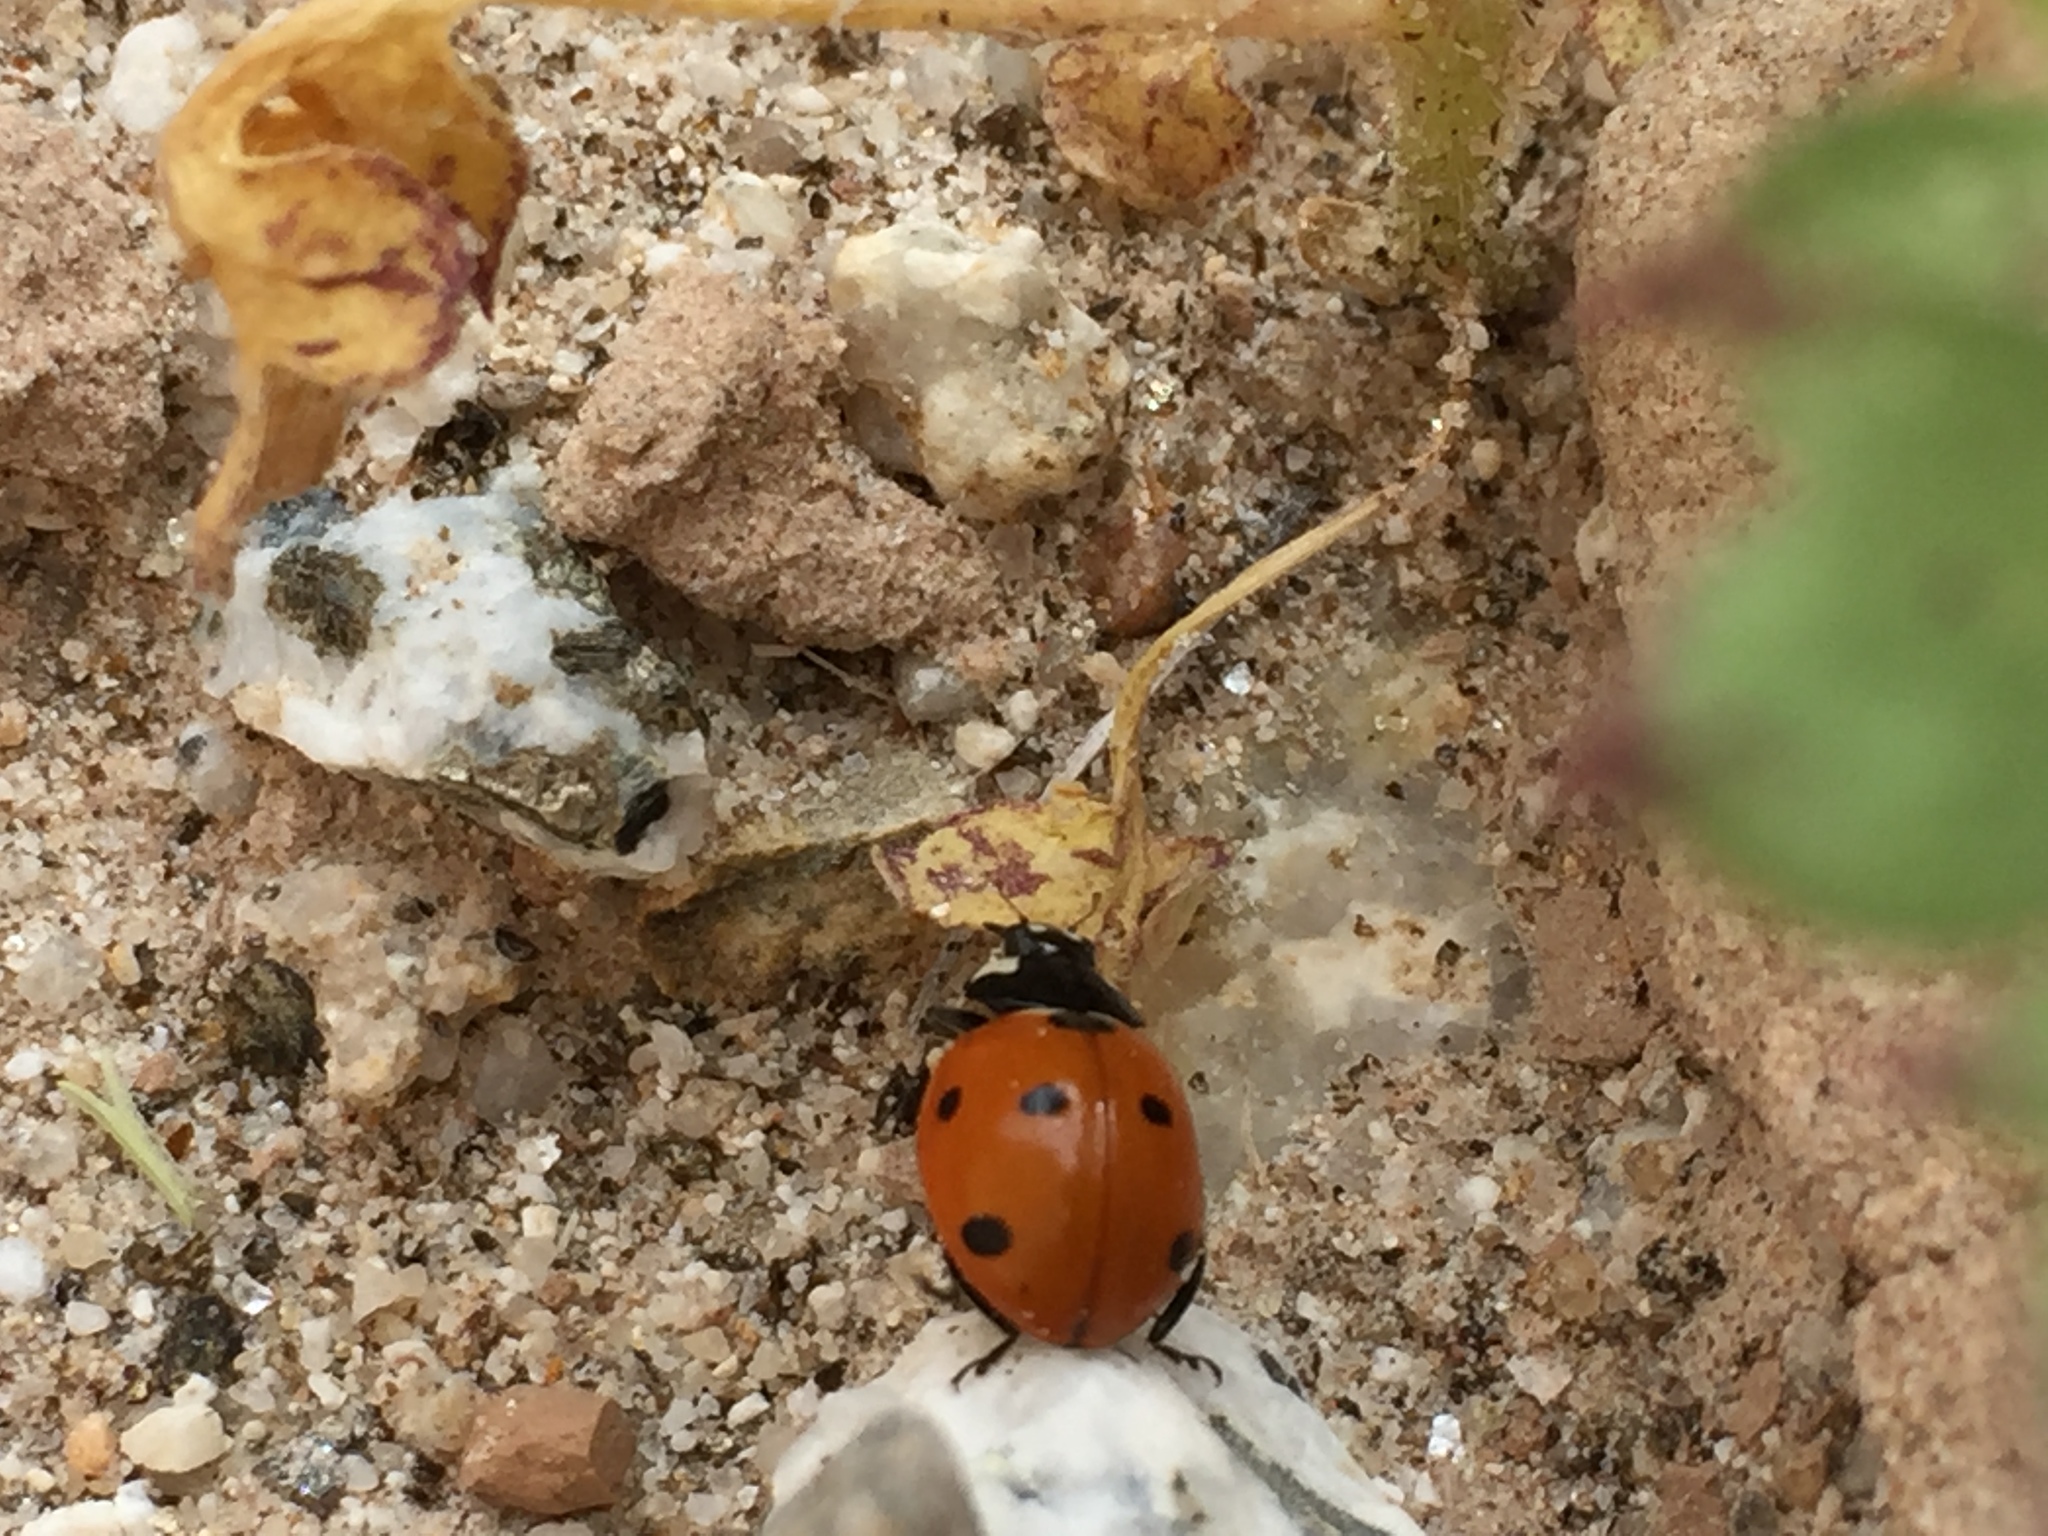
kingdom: Animalia
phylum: Arthropoda
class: Insecta
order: Coleoptera
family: Coccinellidae
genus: Coccinella
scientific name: Coccinella septempunctata
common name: Sevenspotted lady beetle
